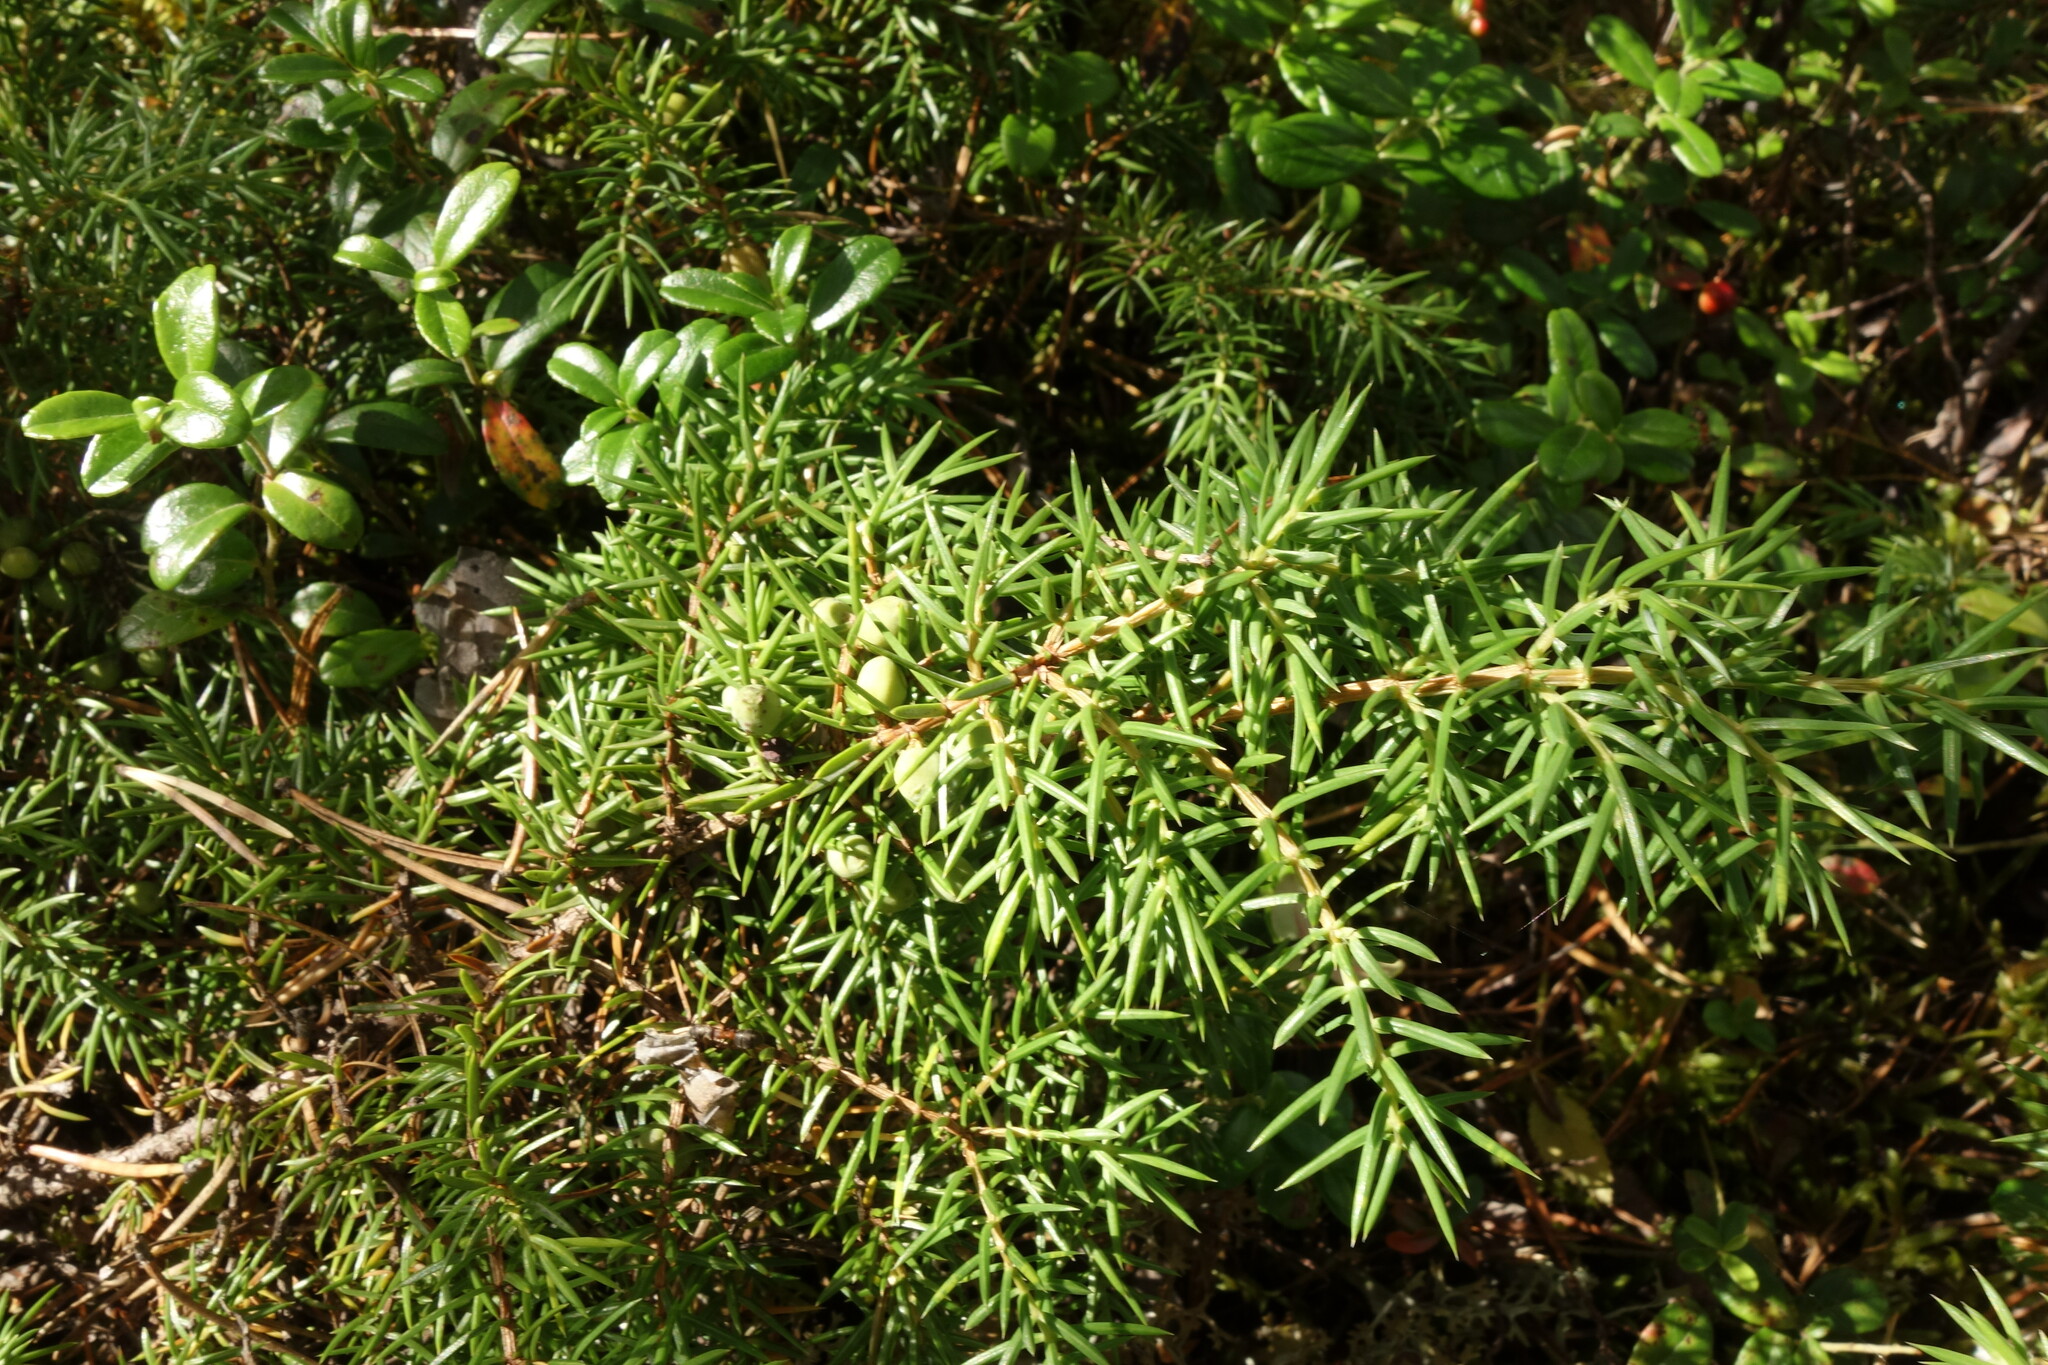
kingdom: Plantae
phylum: Tracheophyta
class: Pinopsida
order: Pinales
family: Cupressaceae
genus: Juniperus
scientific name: Juniperus communis
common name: Common juniper
